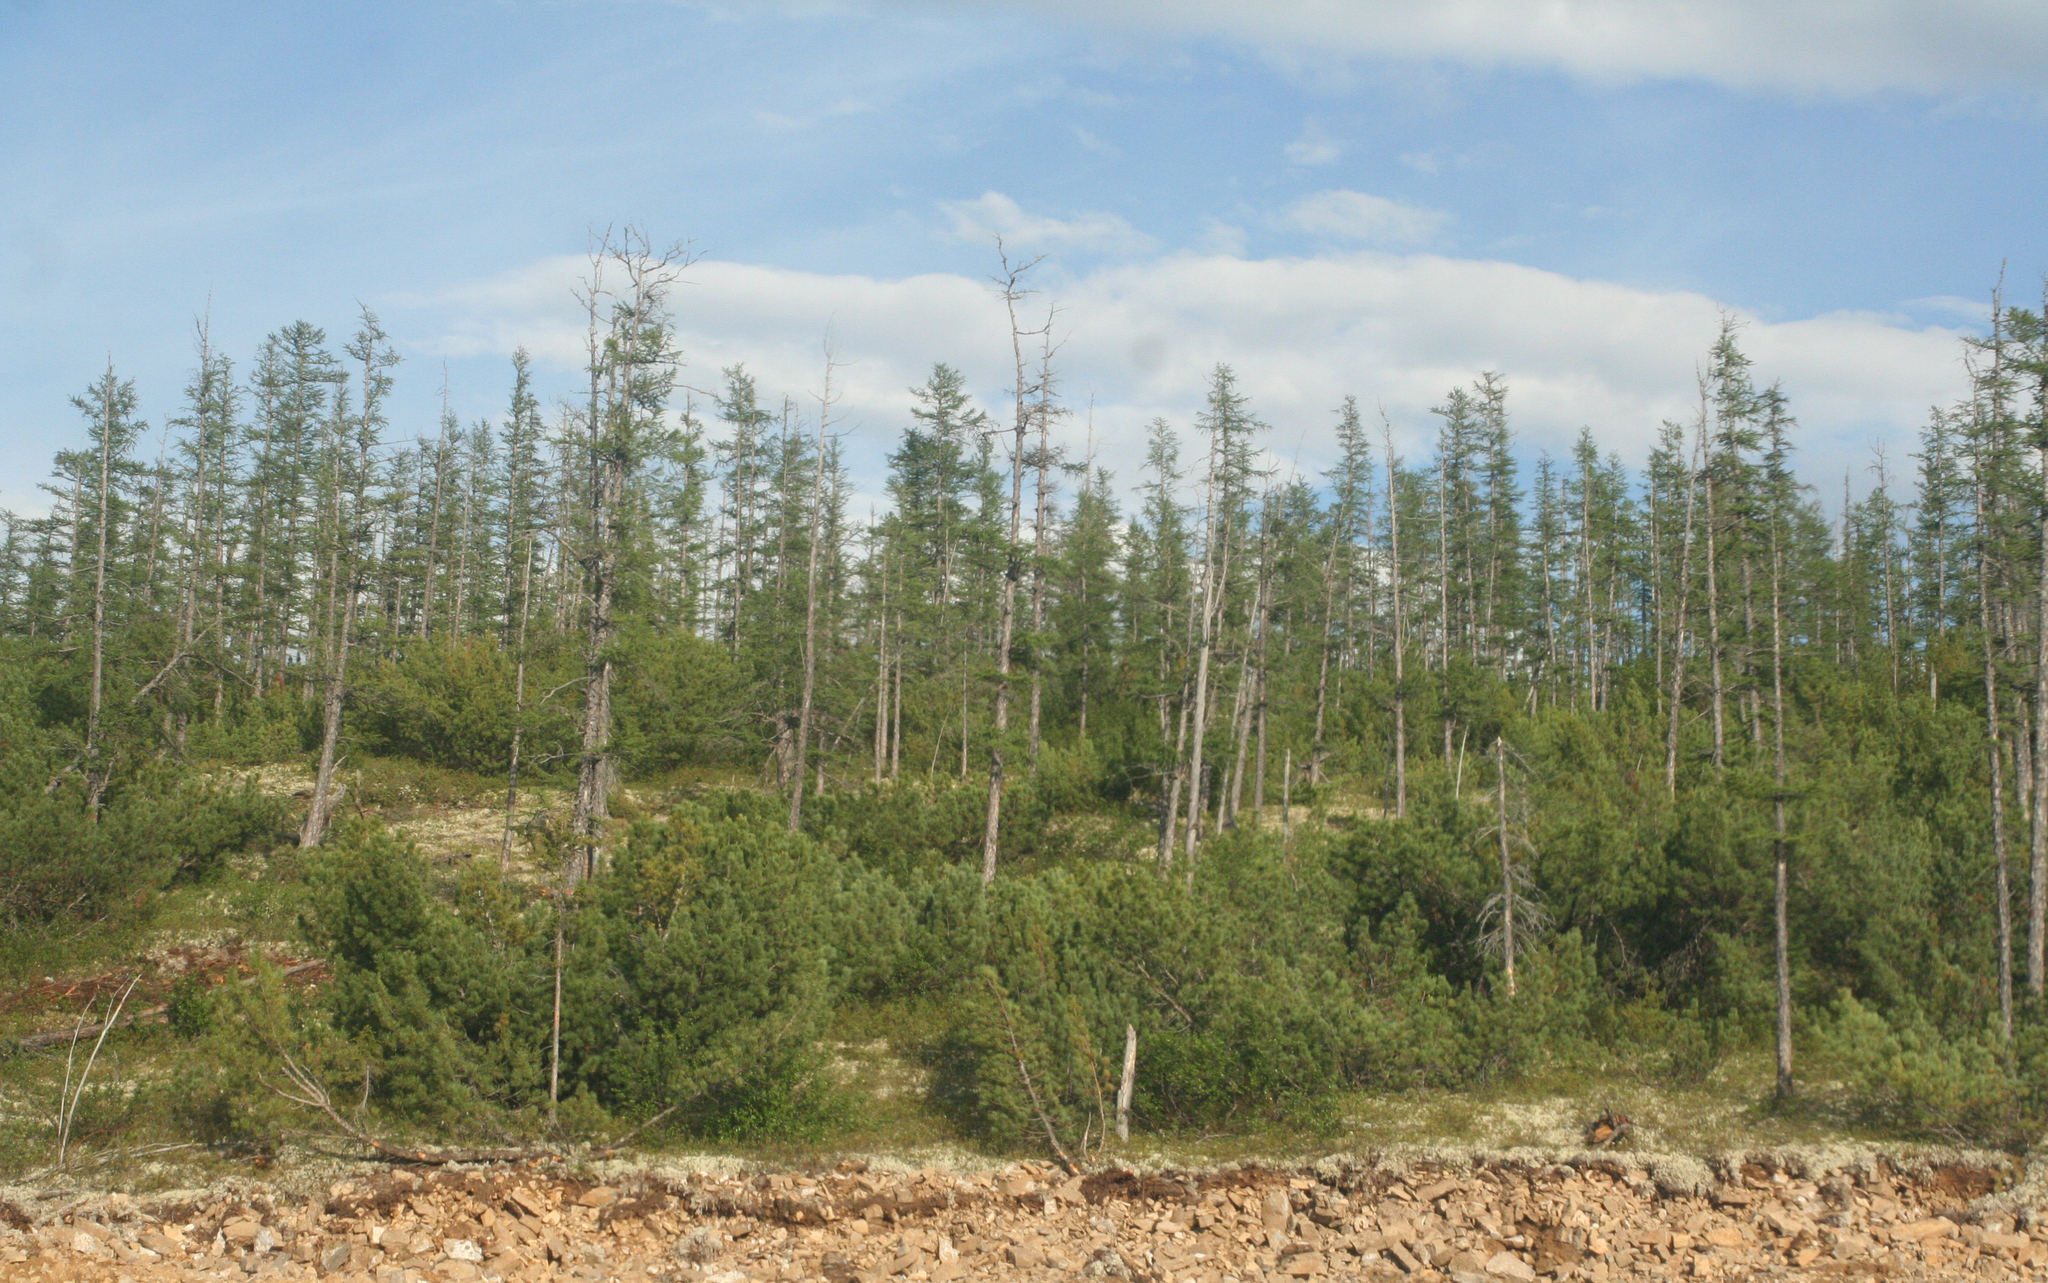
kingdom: Plantae
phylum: Tracheophyta
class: Pinopsida
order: Pinales
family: Pinaceae
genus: Larix
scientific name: Larix gmelinii
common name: Dahurian larch
